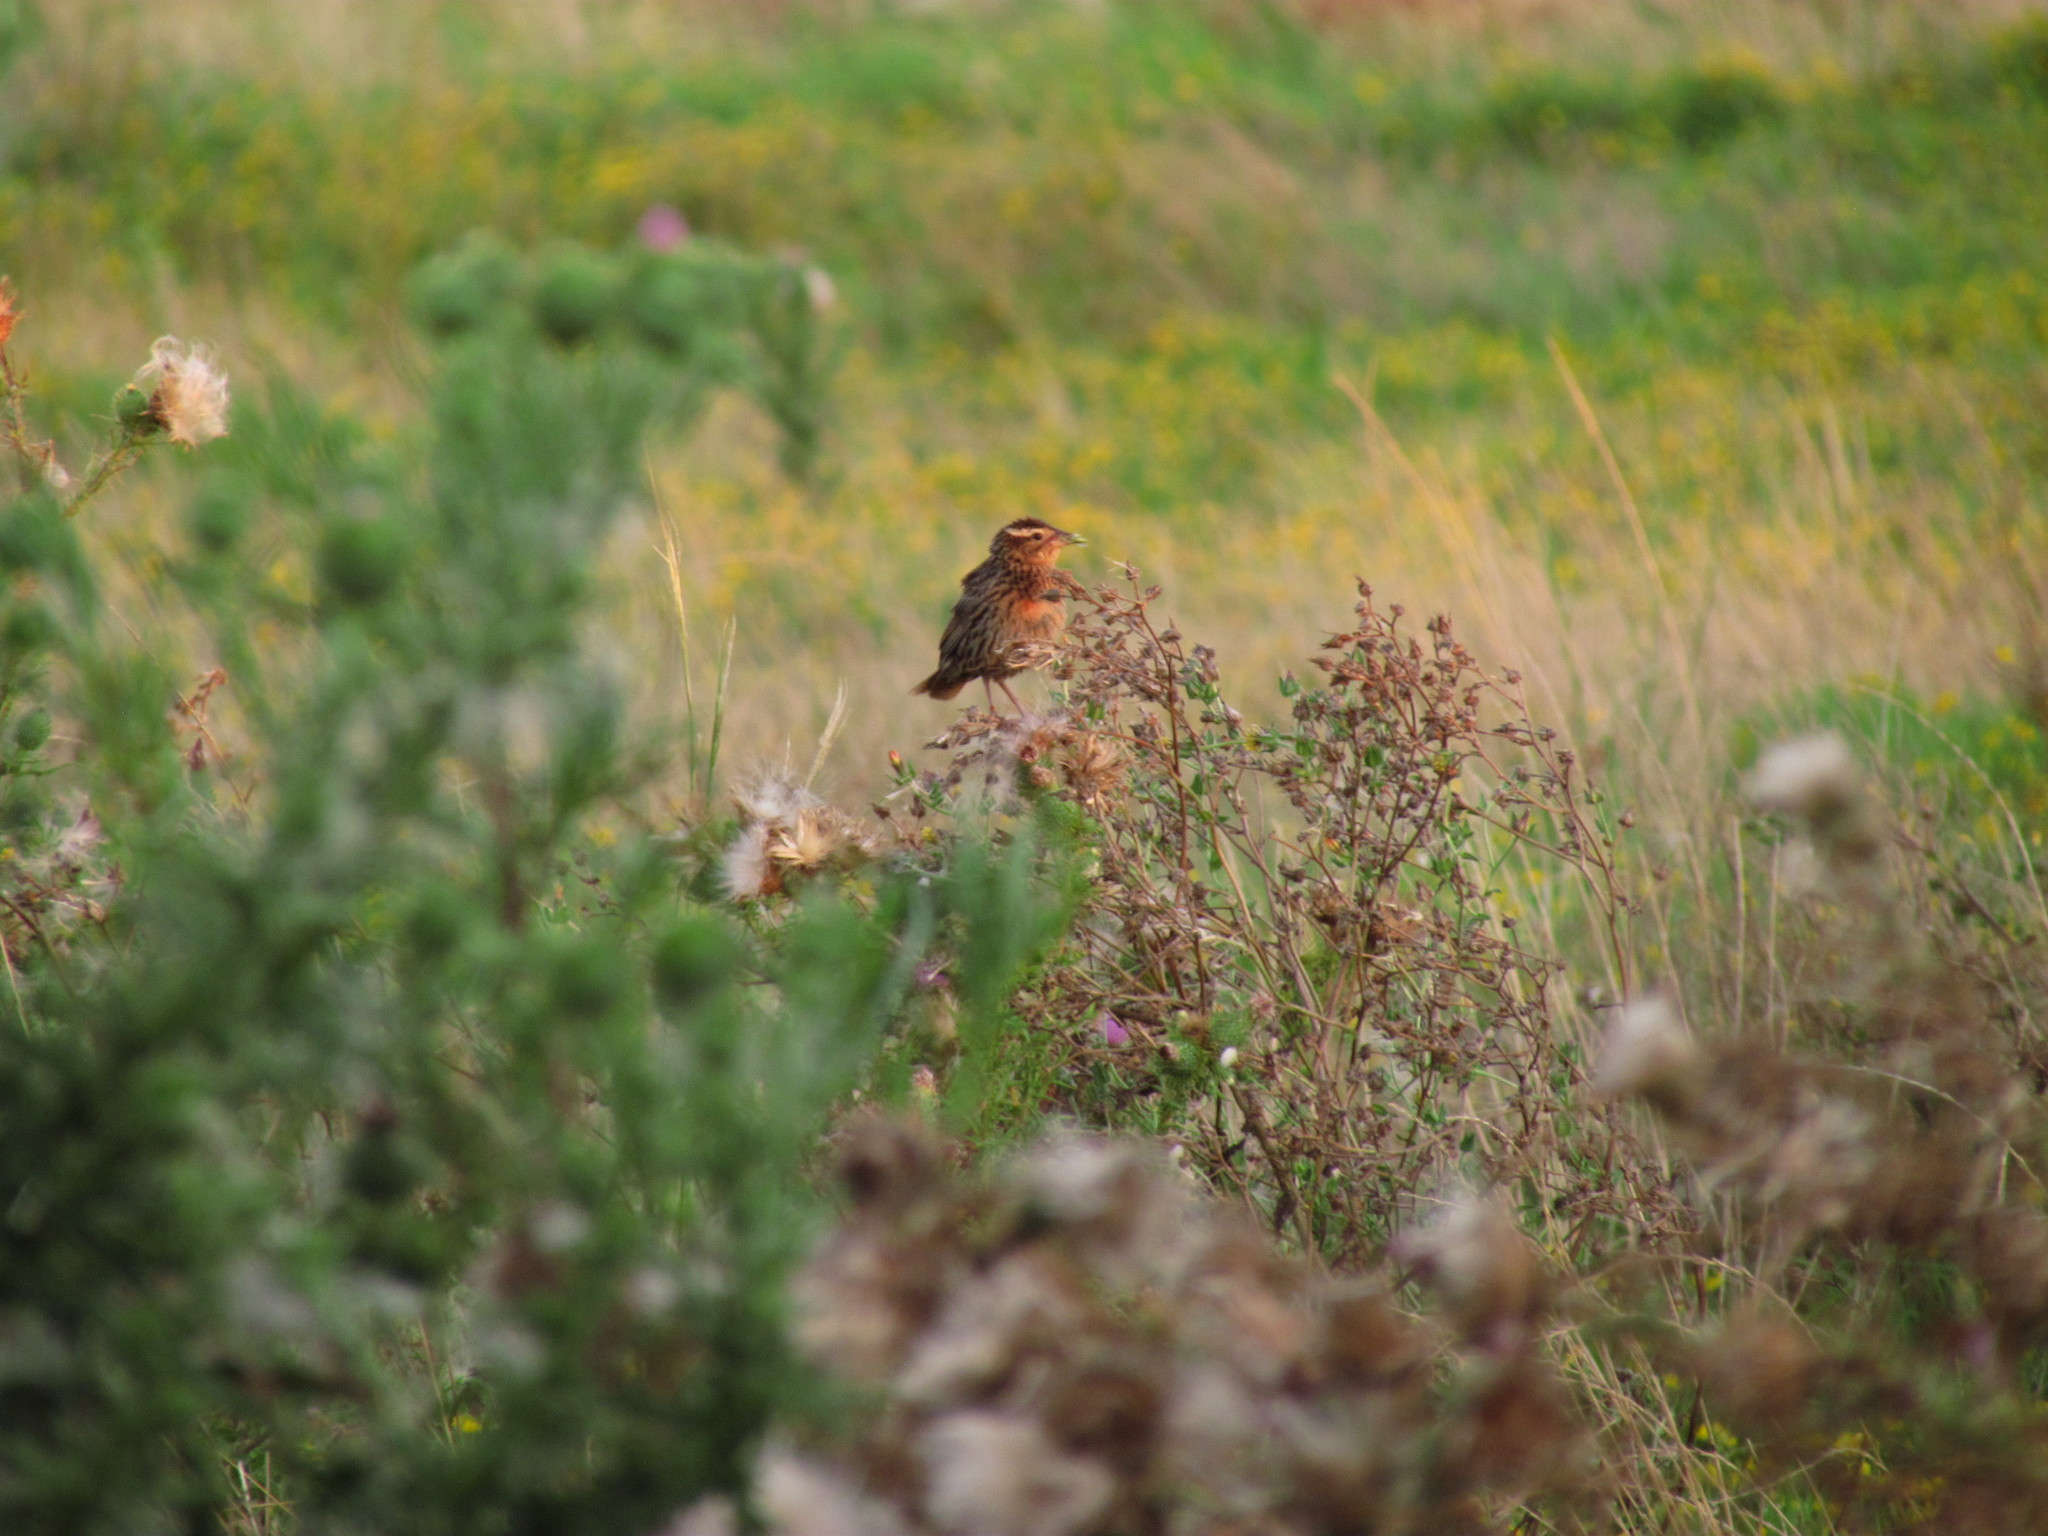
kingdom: Animalia
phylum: Chordata
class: Aves
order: Passeriformes
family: Icteridae
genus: Sturnella
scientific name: Sturnella superciliaris
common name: White-browed blackbird
